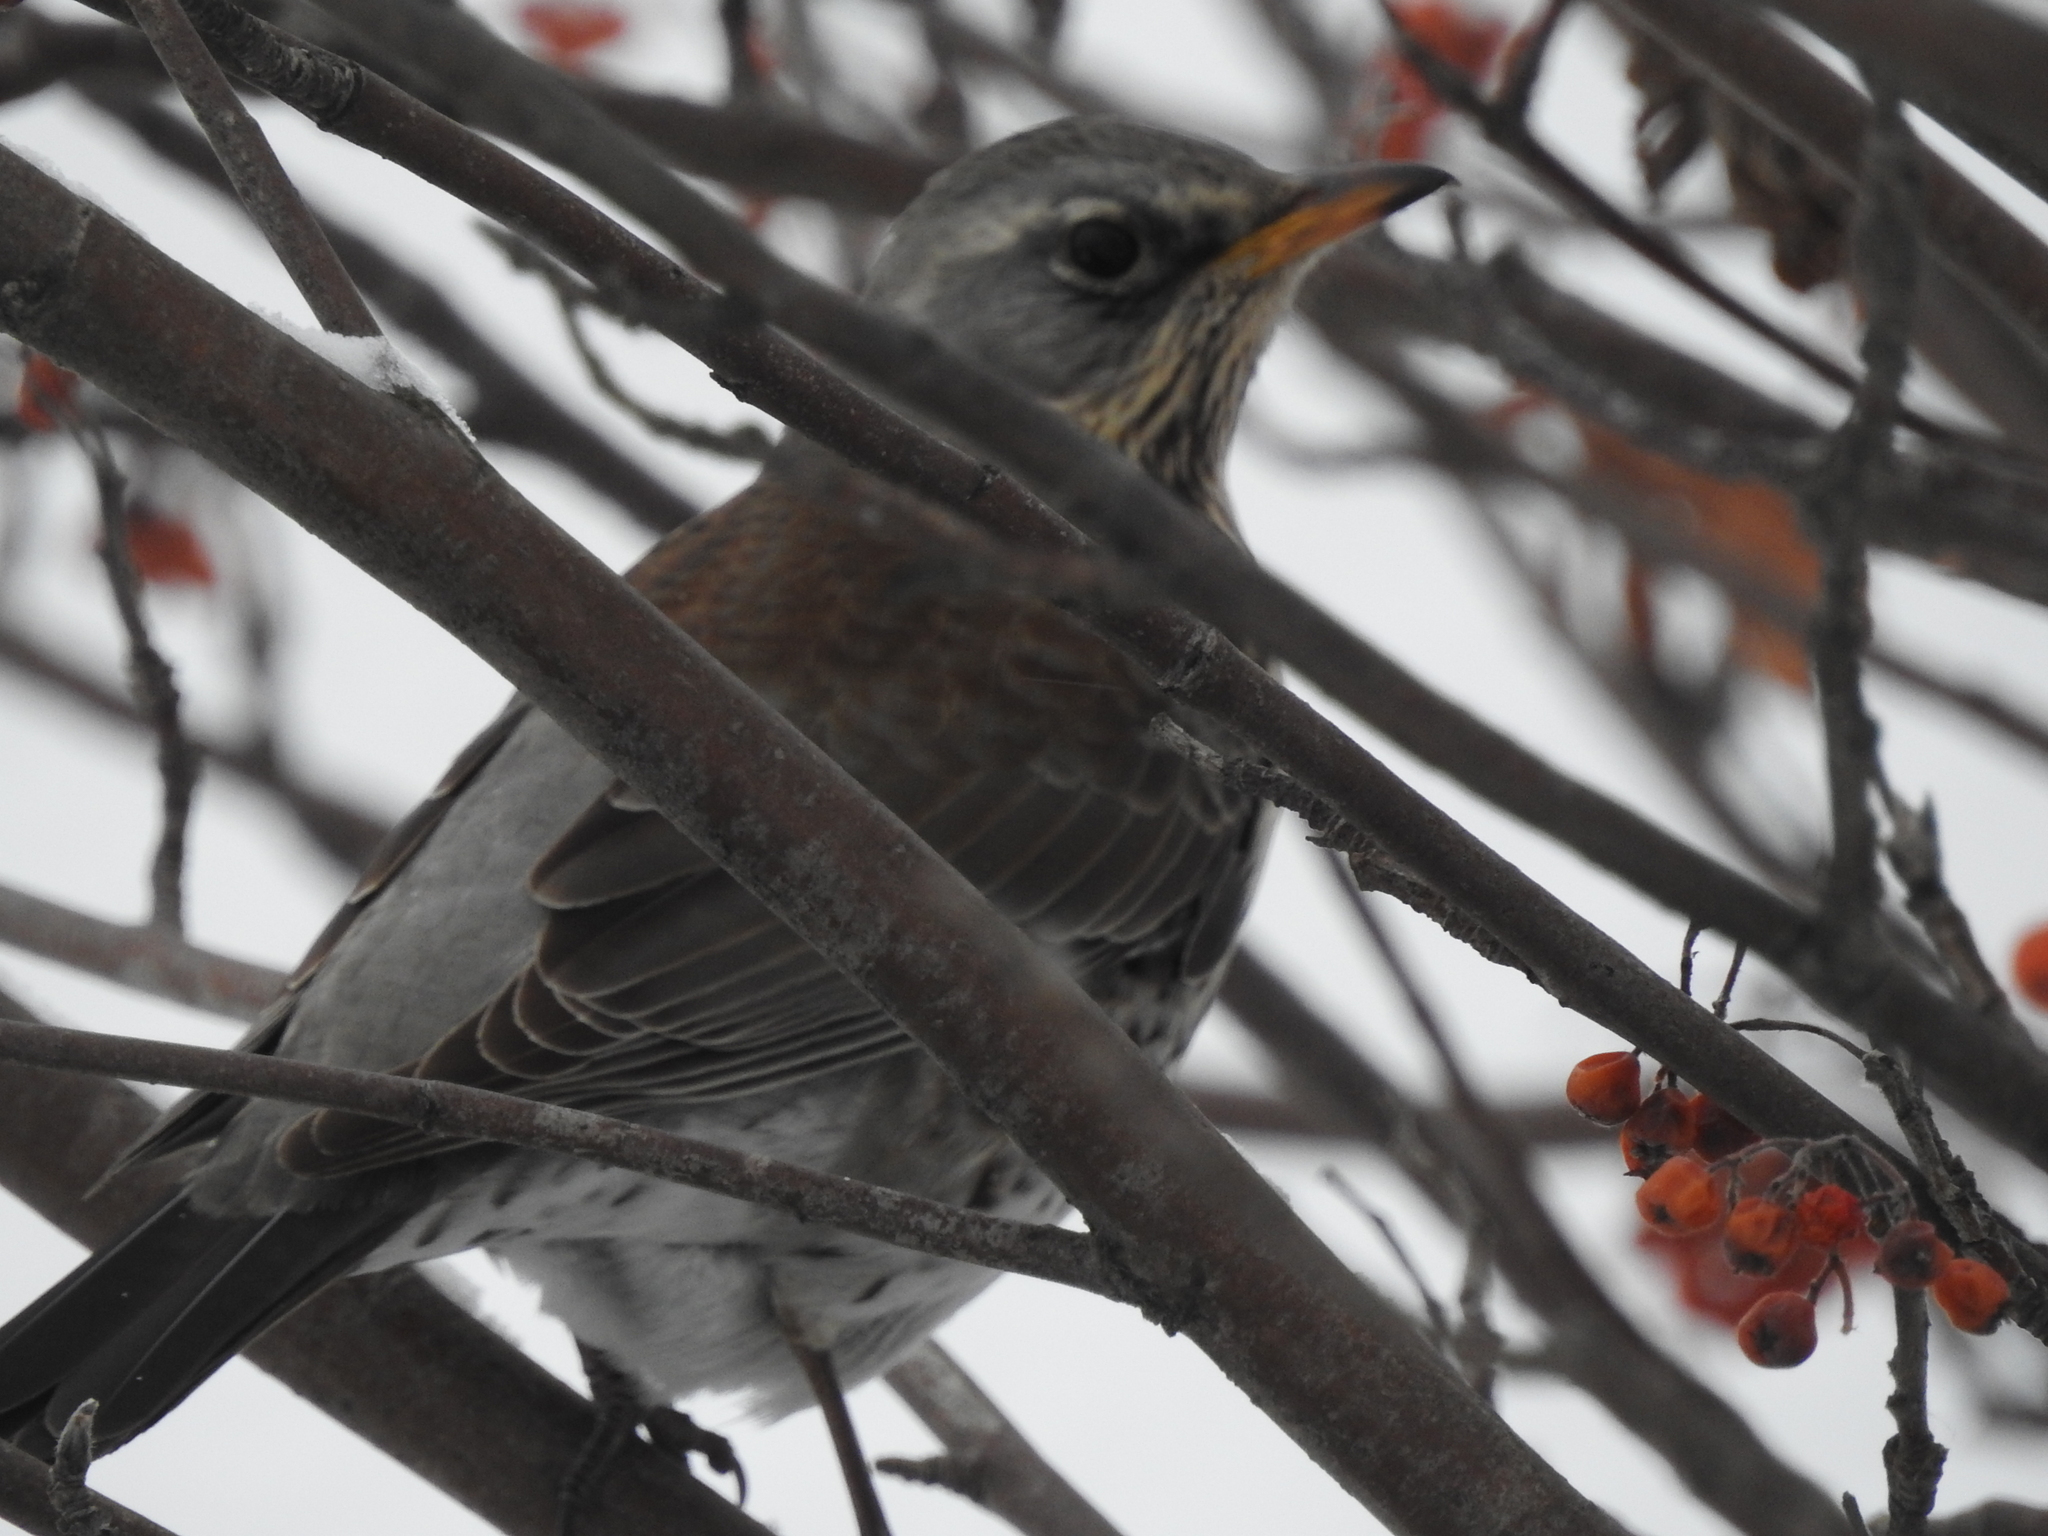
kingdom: Animalia
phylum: Chordata
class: Aves
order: Passeriformes
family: Turdidae
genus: Turdus
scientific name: Turdus pilaris
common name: Fieldfare
